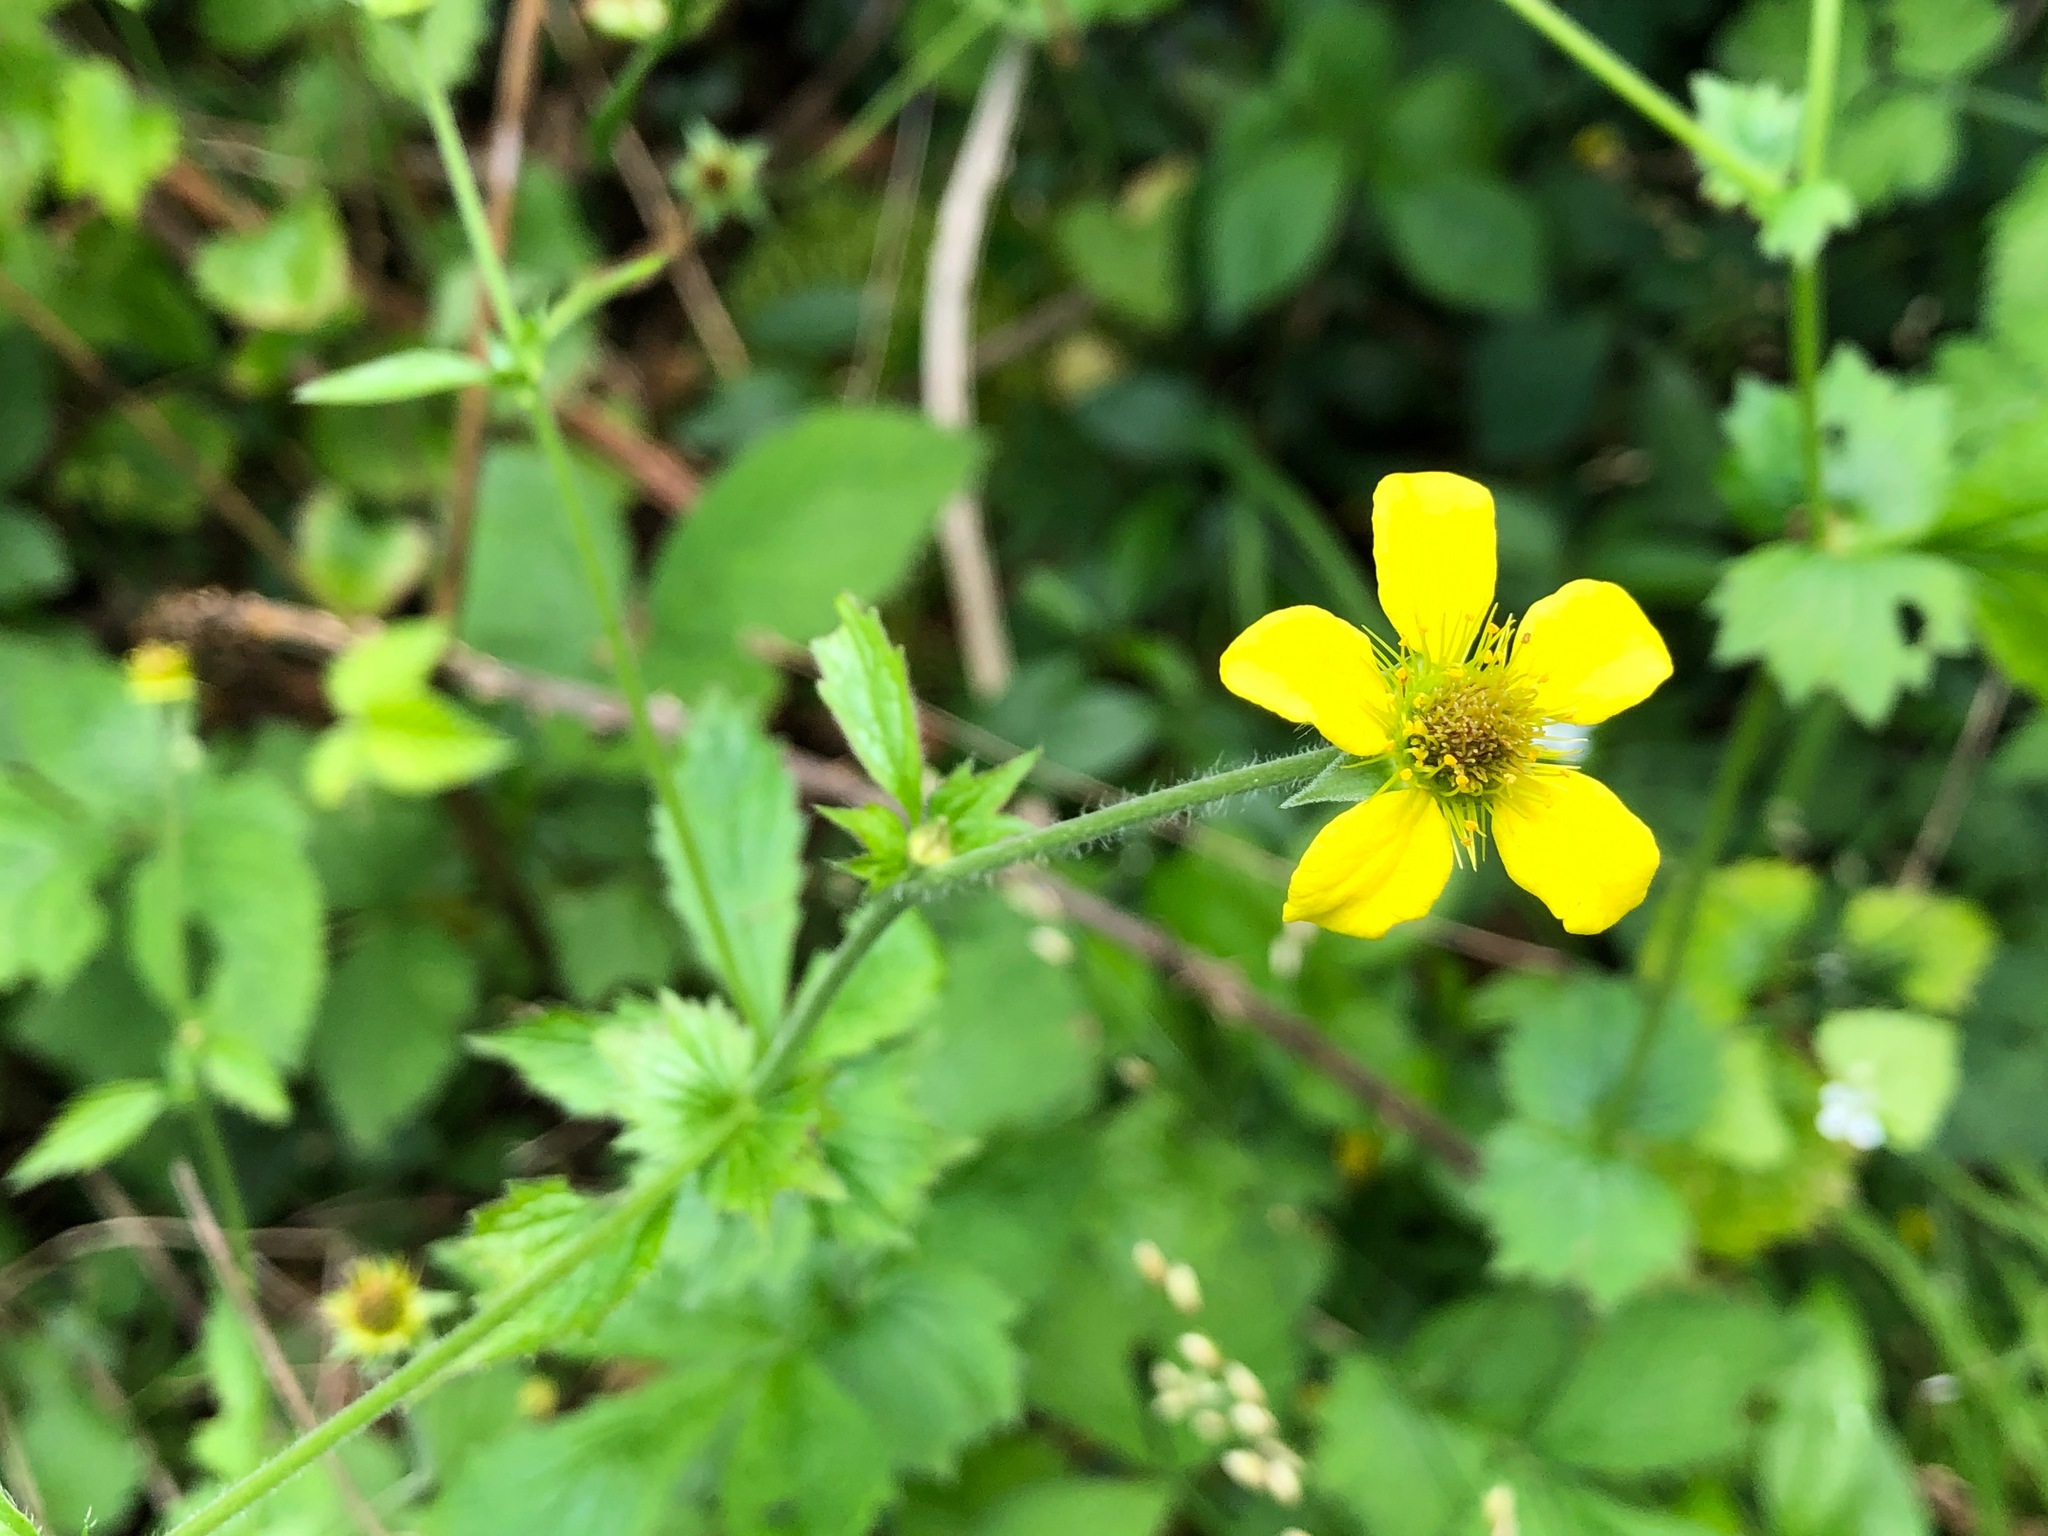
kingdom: Plantae
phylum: Tracheophyta
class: Magnoliopsida
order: Rosales
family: Rosaceae
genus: Geum
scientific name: Geum urbanum
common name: Wood avens
